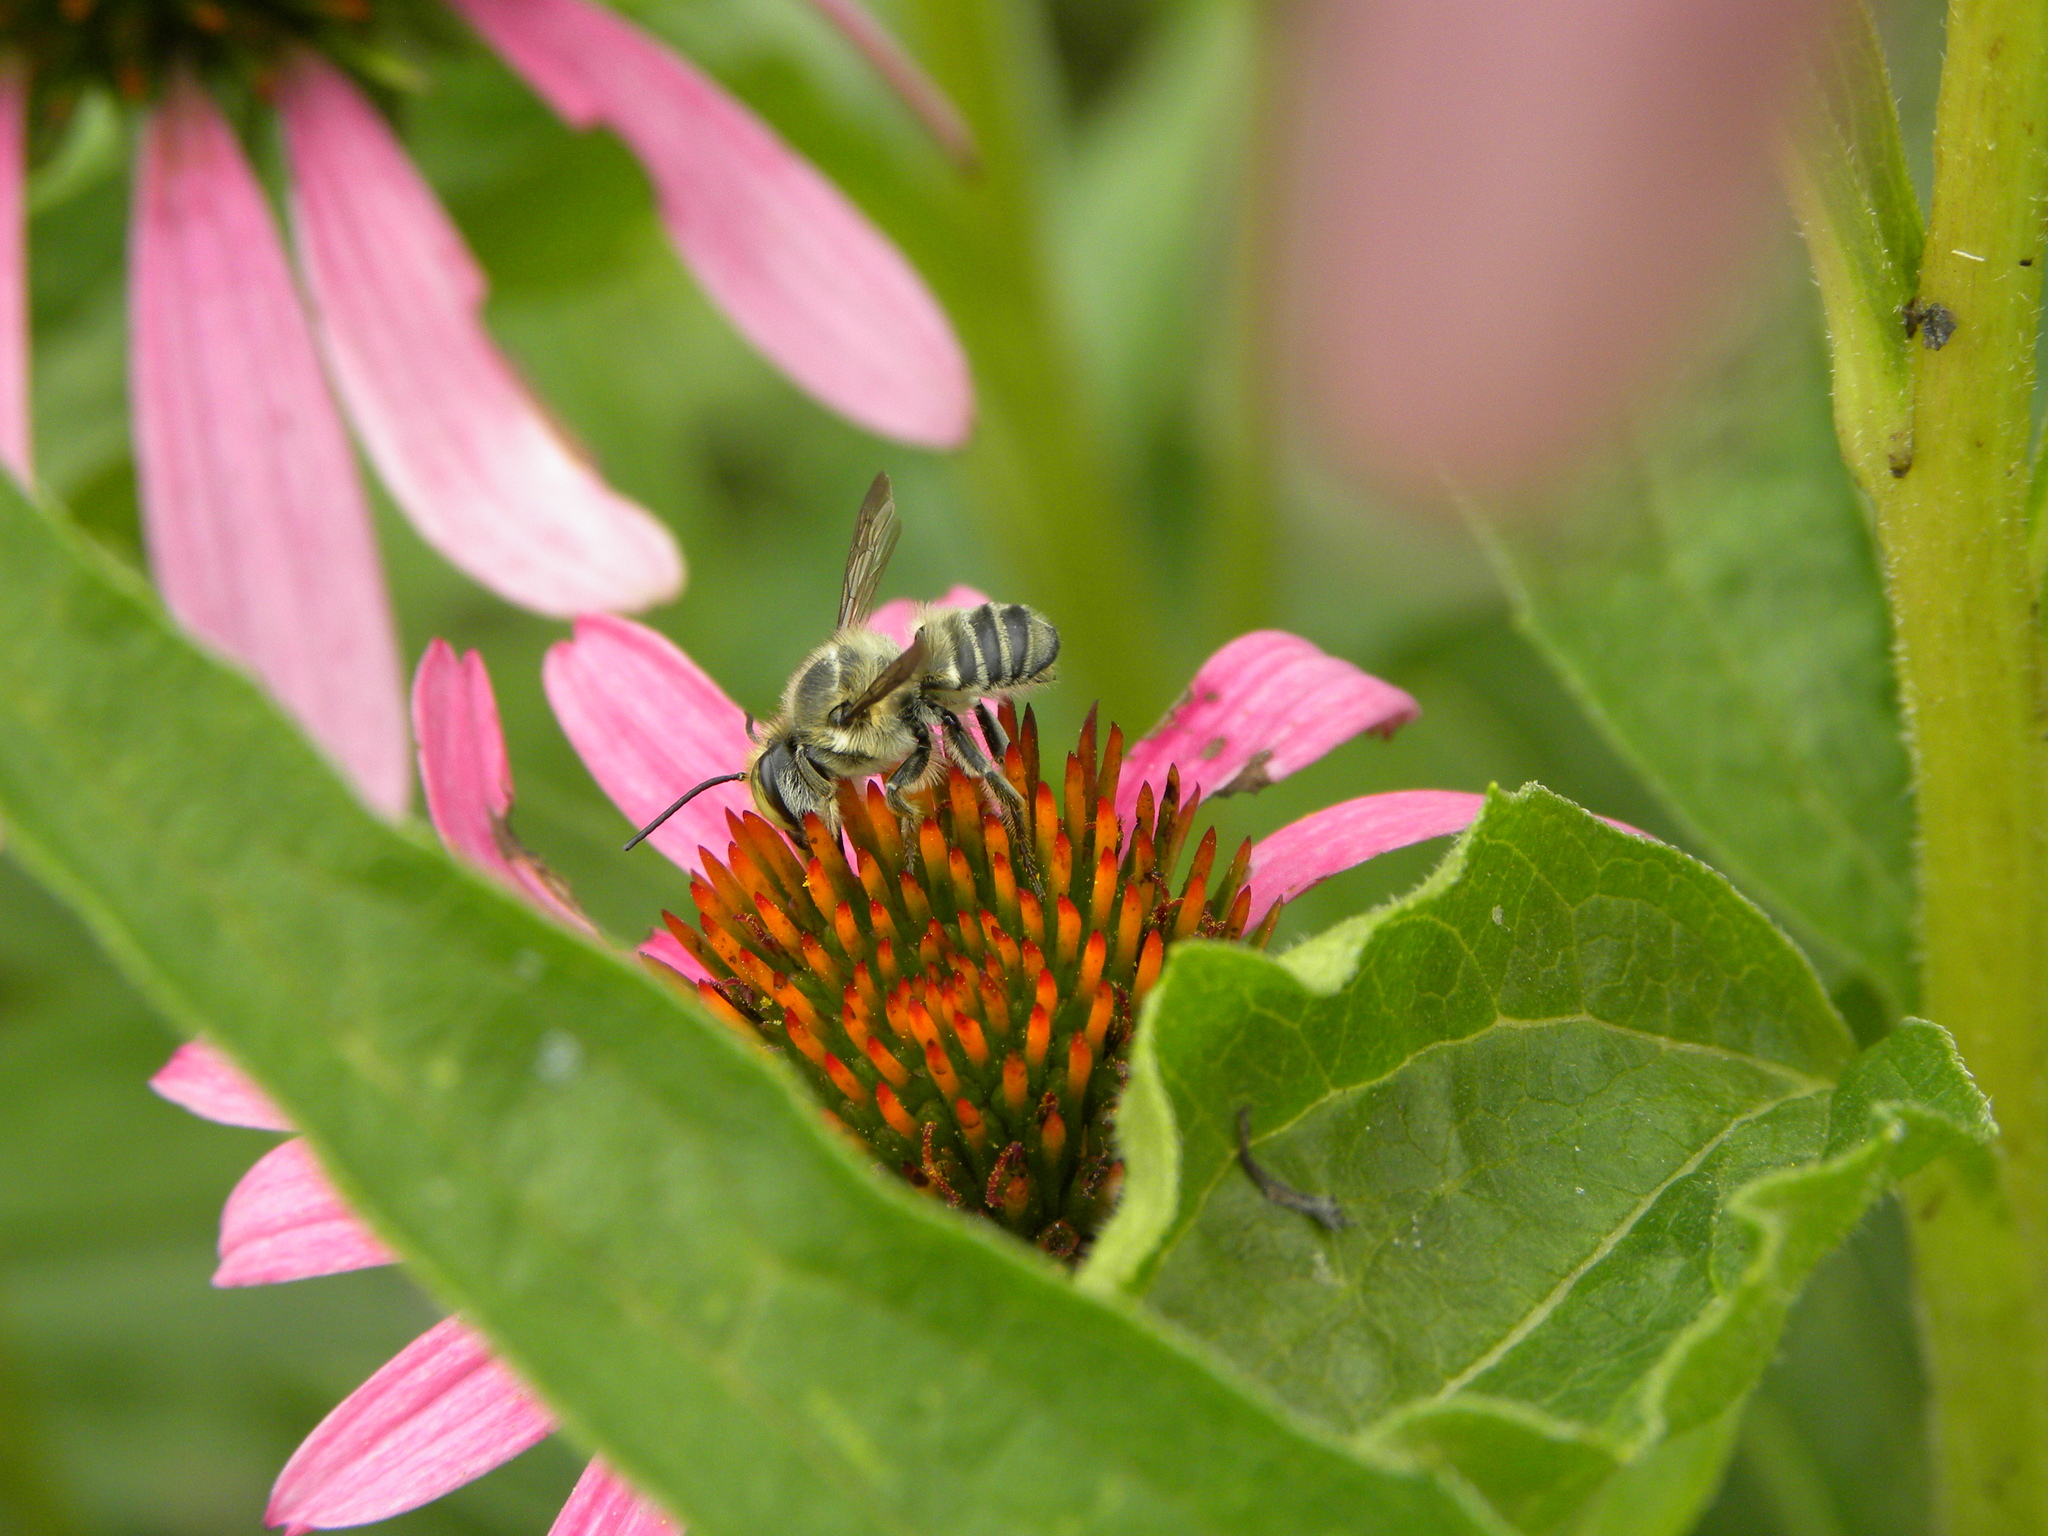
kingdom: Animalia
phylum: Arthropoda
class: Insecta
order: Hymenoptera
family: Megachilidae
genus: Megachile
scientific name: Megachile petulans
